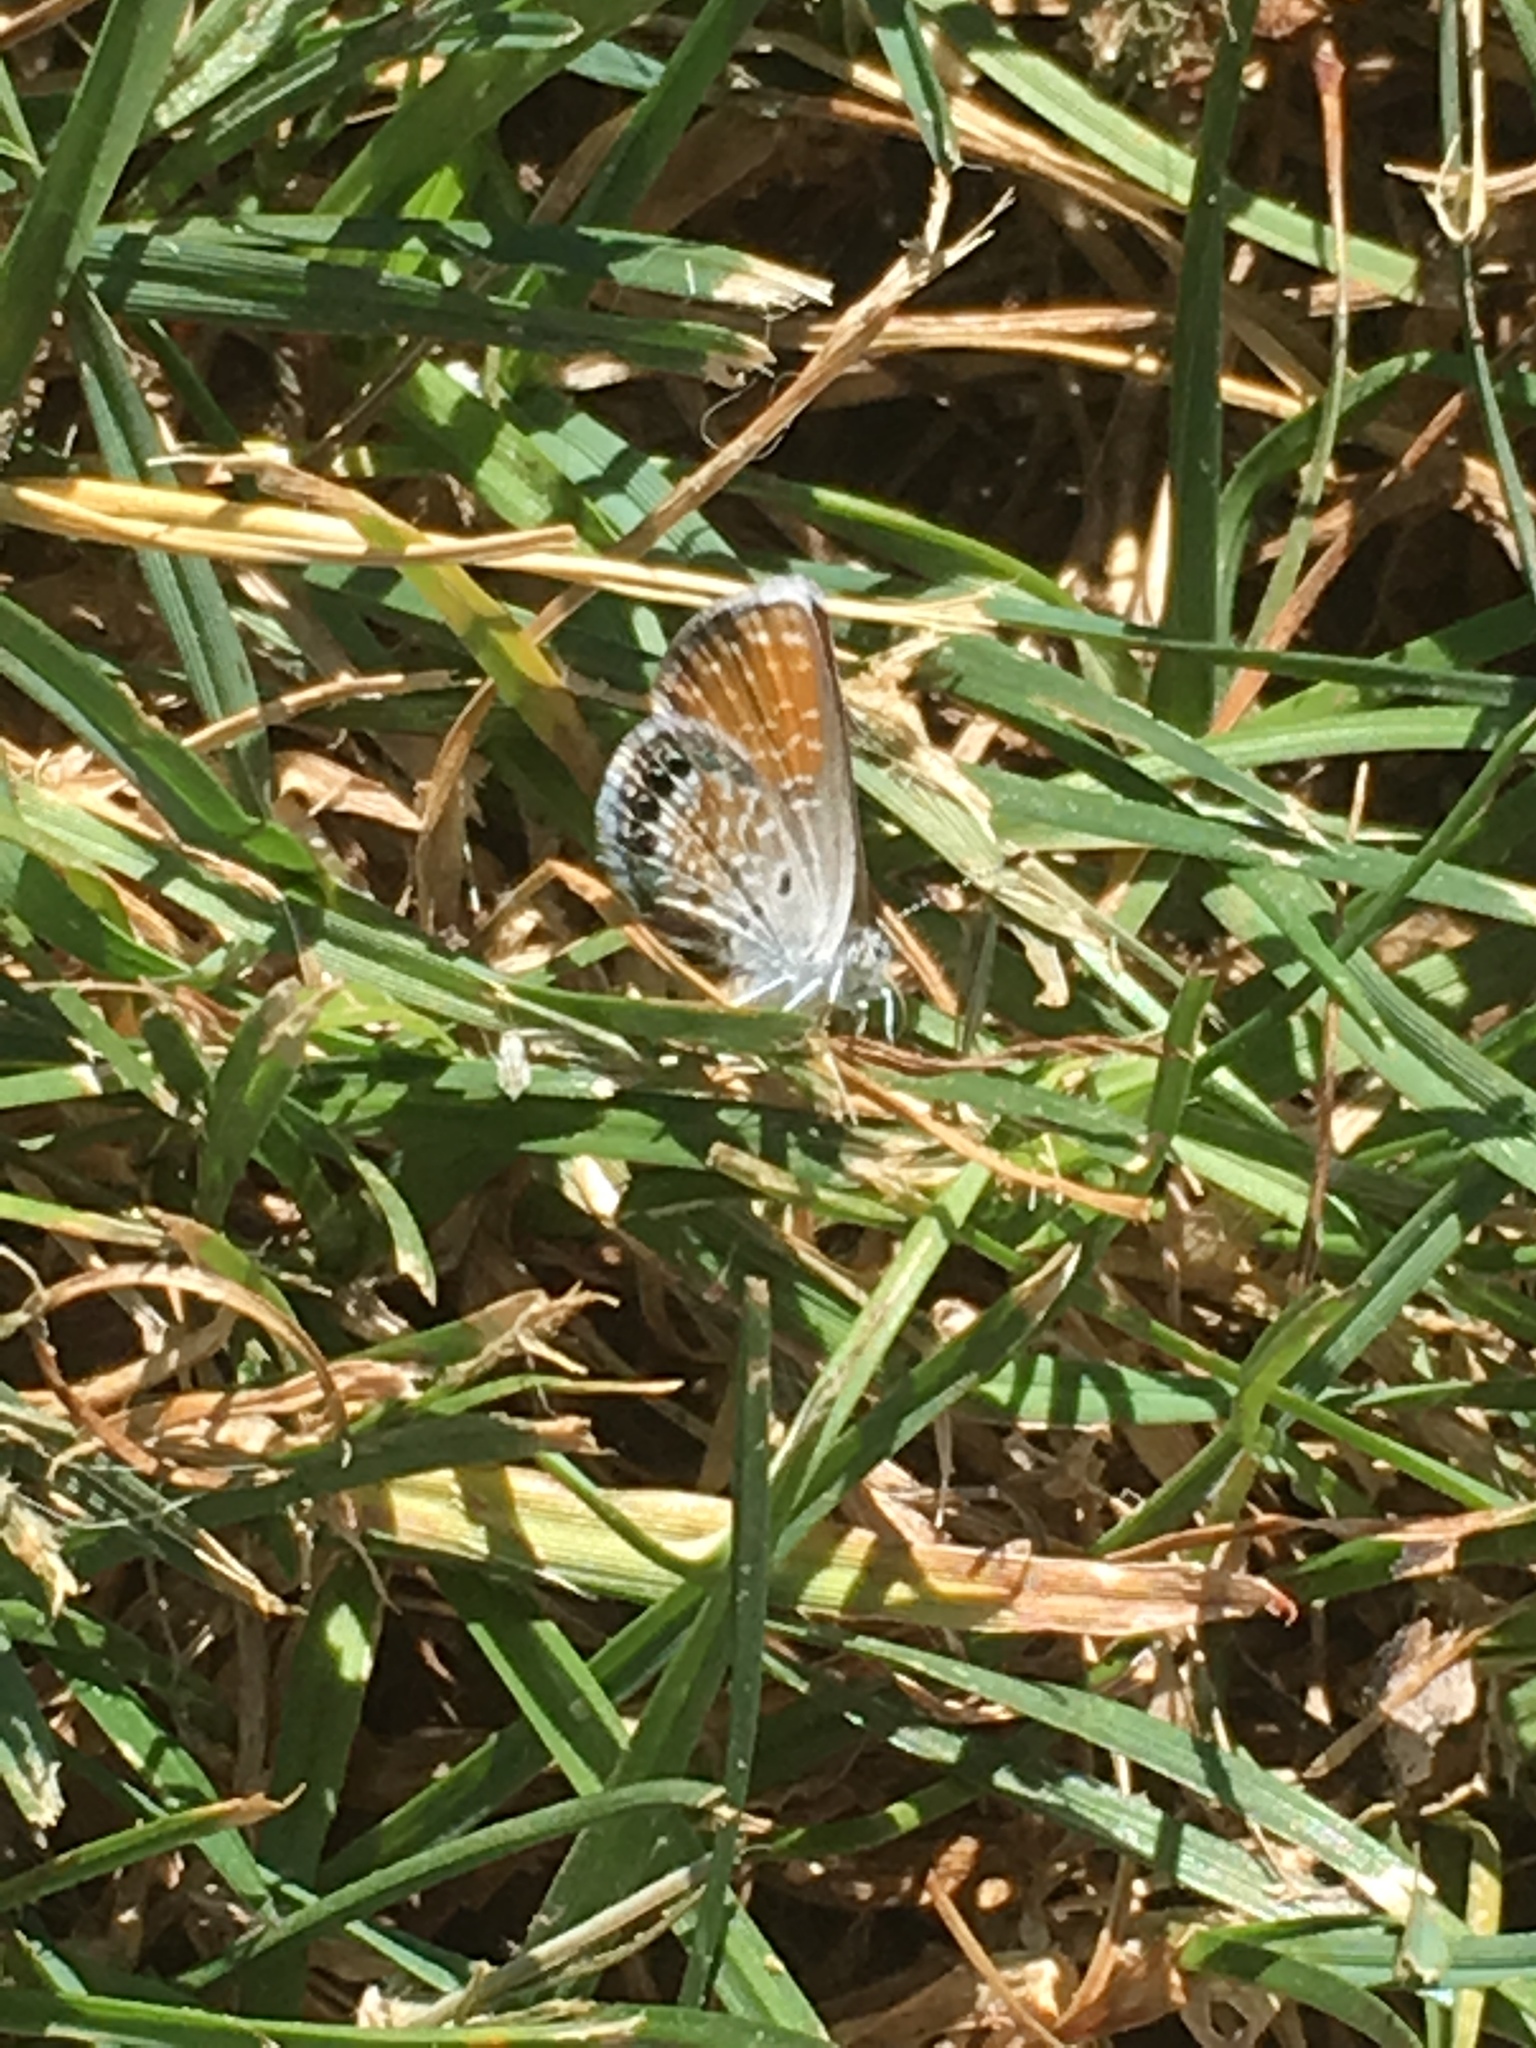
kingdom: Animalia
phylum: Arthropoda
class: Insecta
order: Lepidoptera
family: Lycaenidae
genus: Brephidium
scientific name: Brephidium exilis
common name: Pygmy blue
